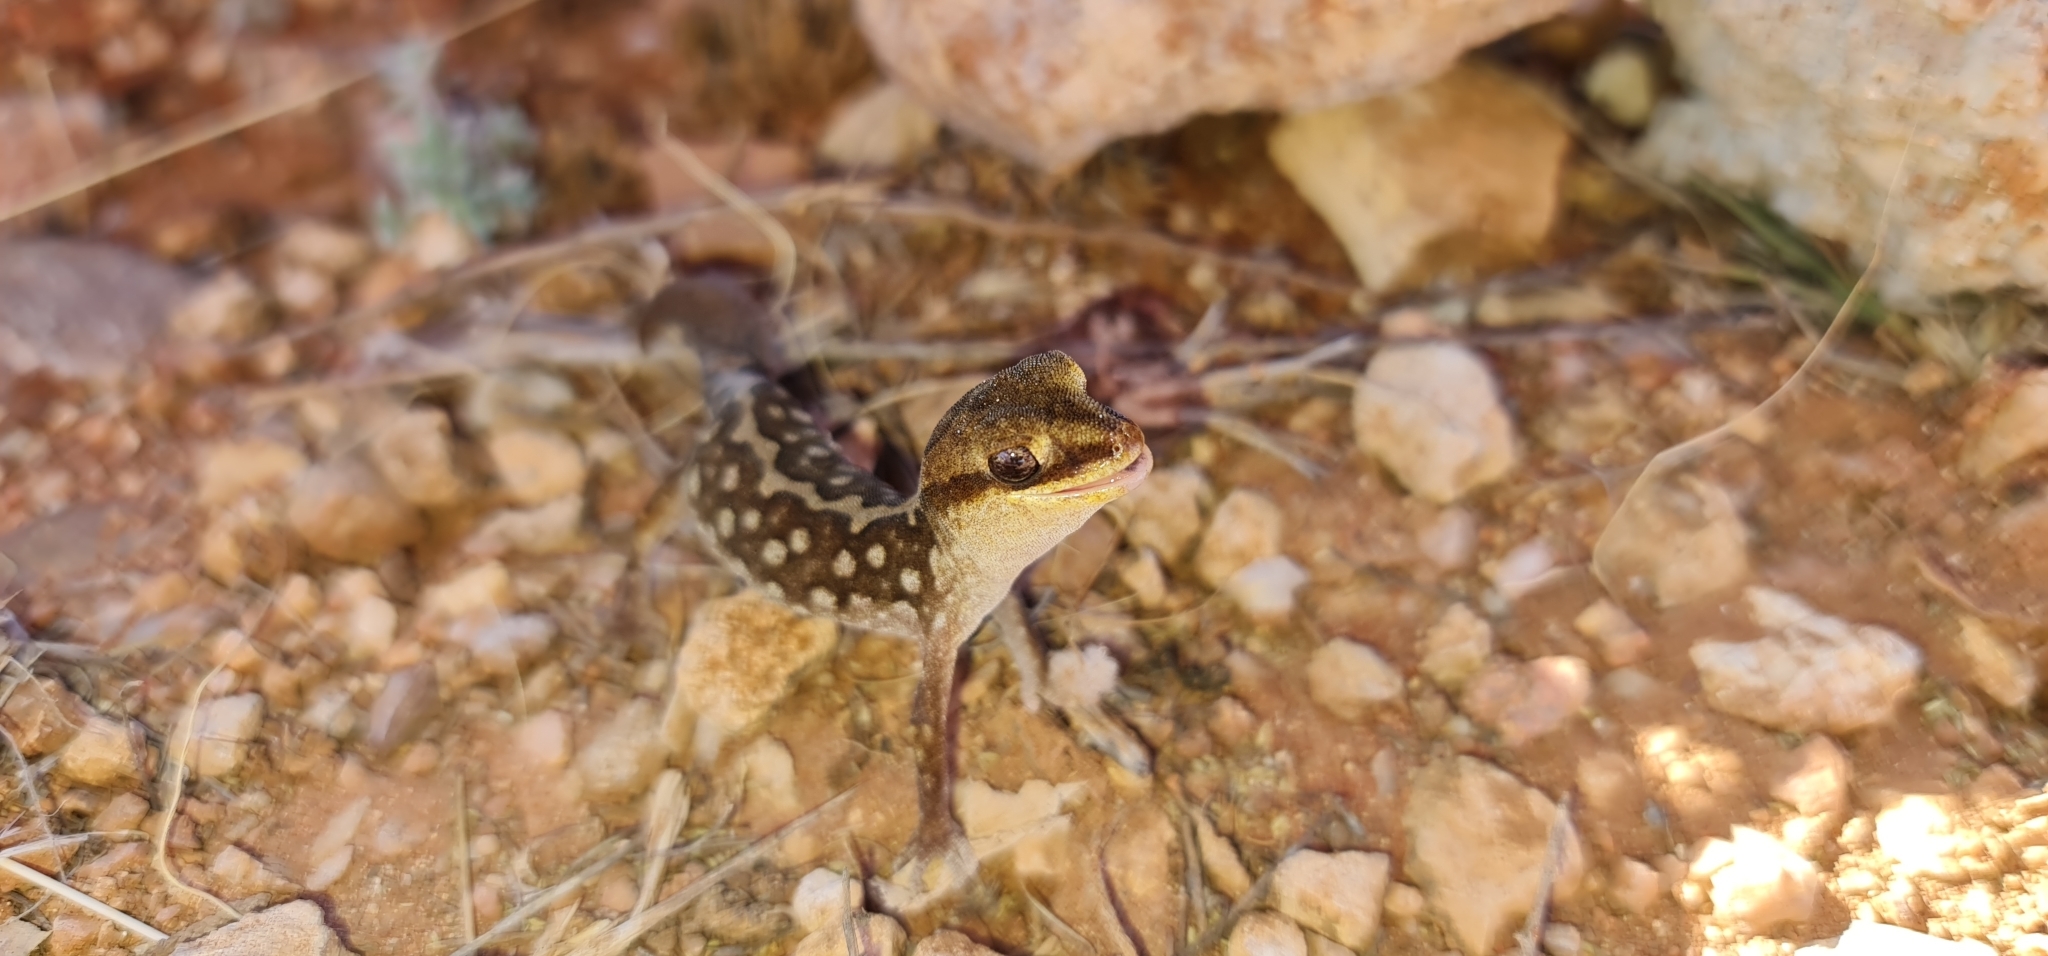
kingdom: Animalia
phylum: Chordata
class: Squamata
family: Diplodactylidae
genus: Diplodactylus
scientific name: Diplodactylus furcosus
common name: Ranges stone gecko
